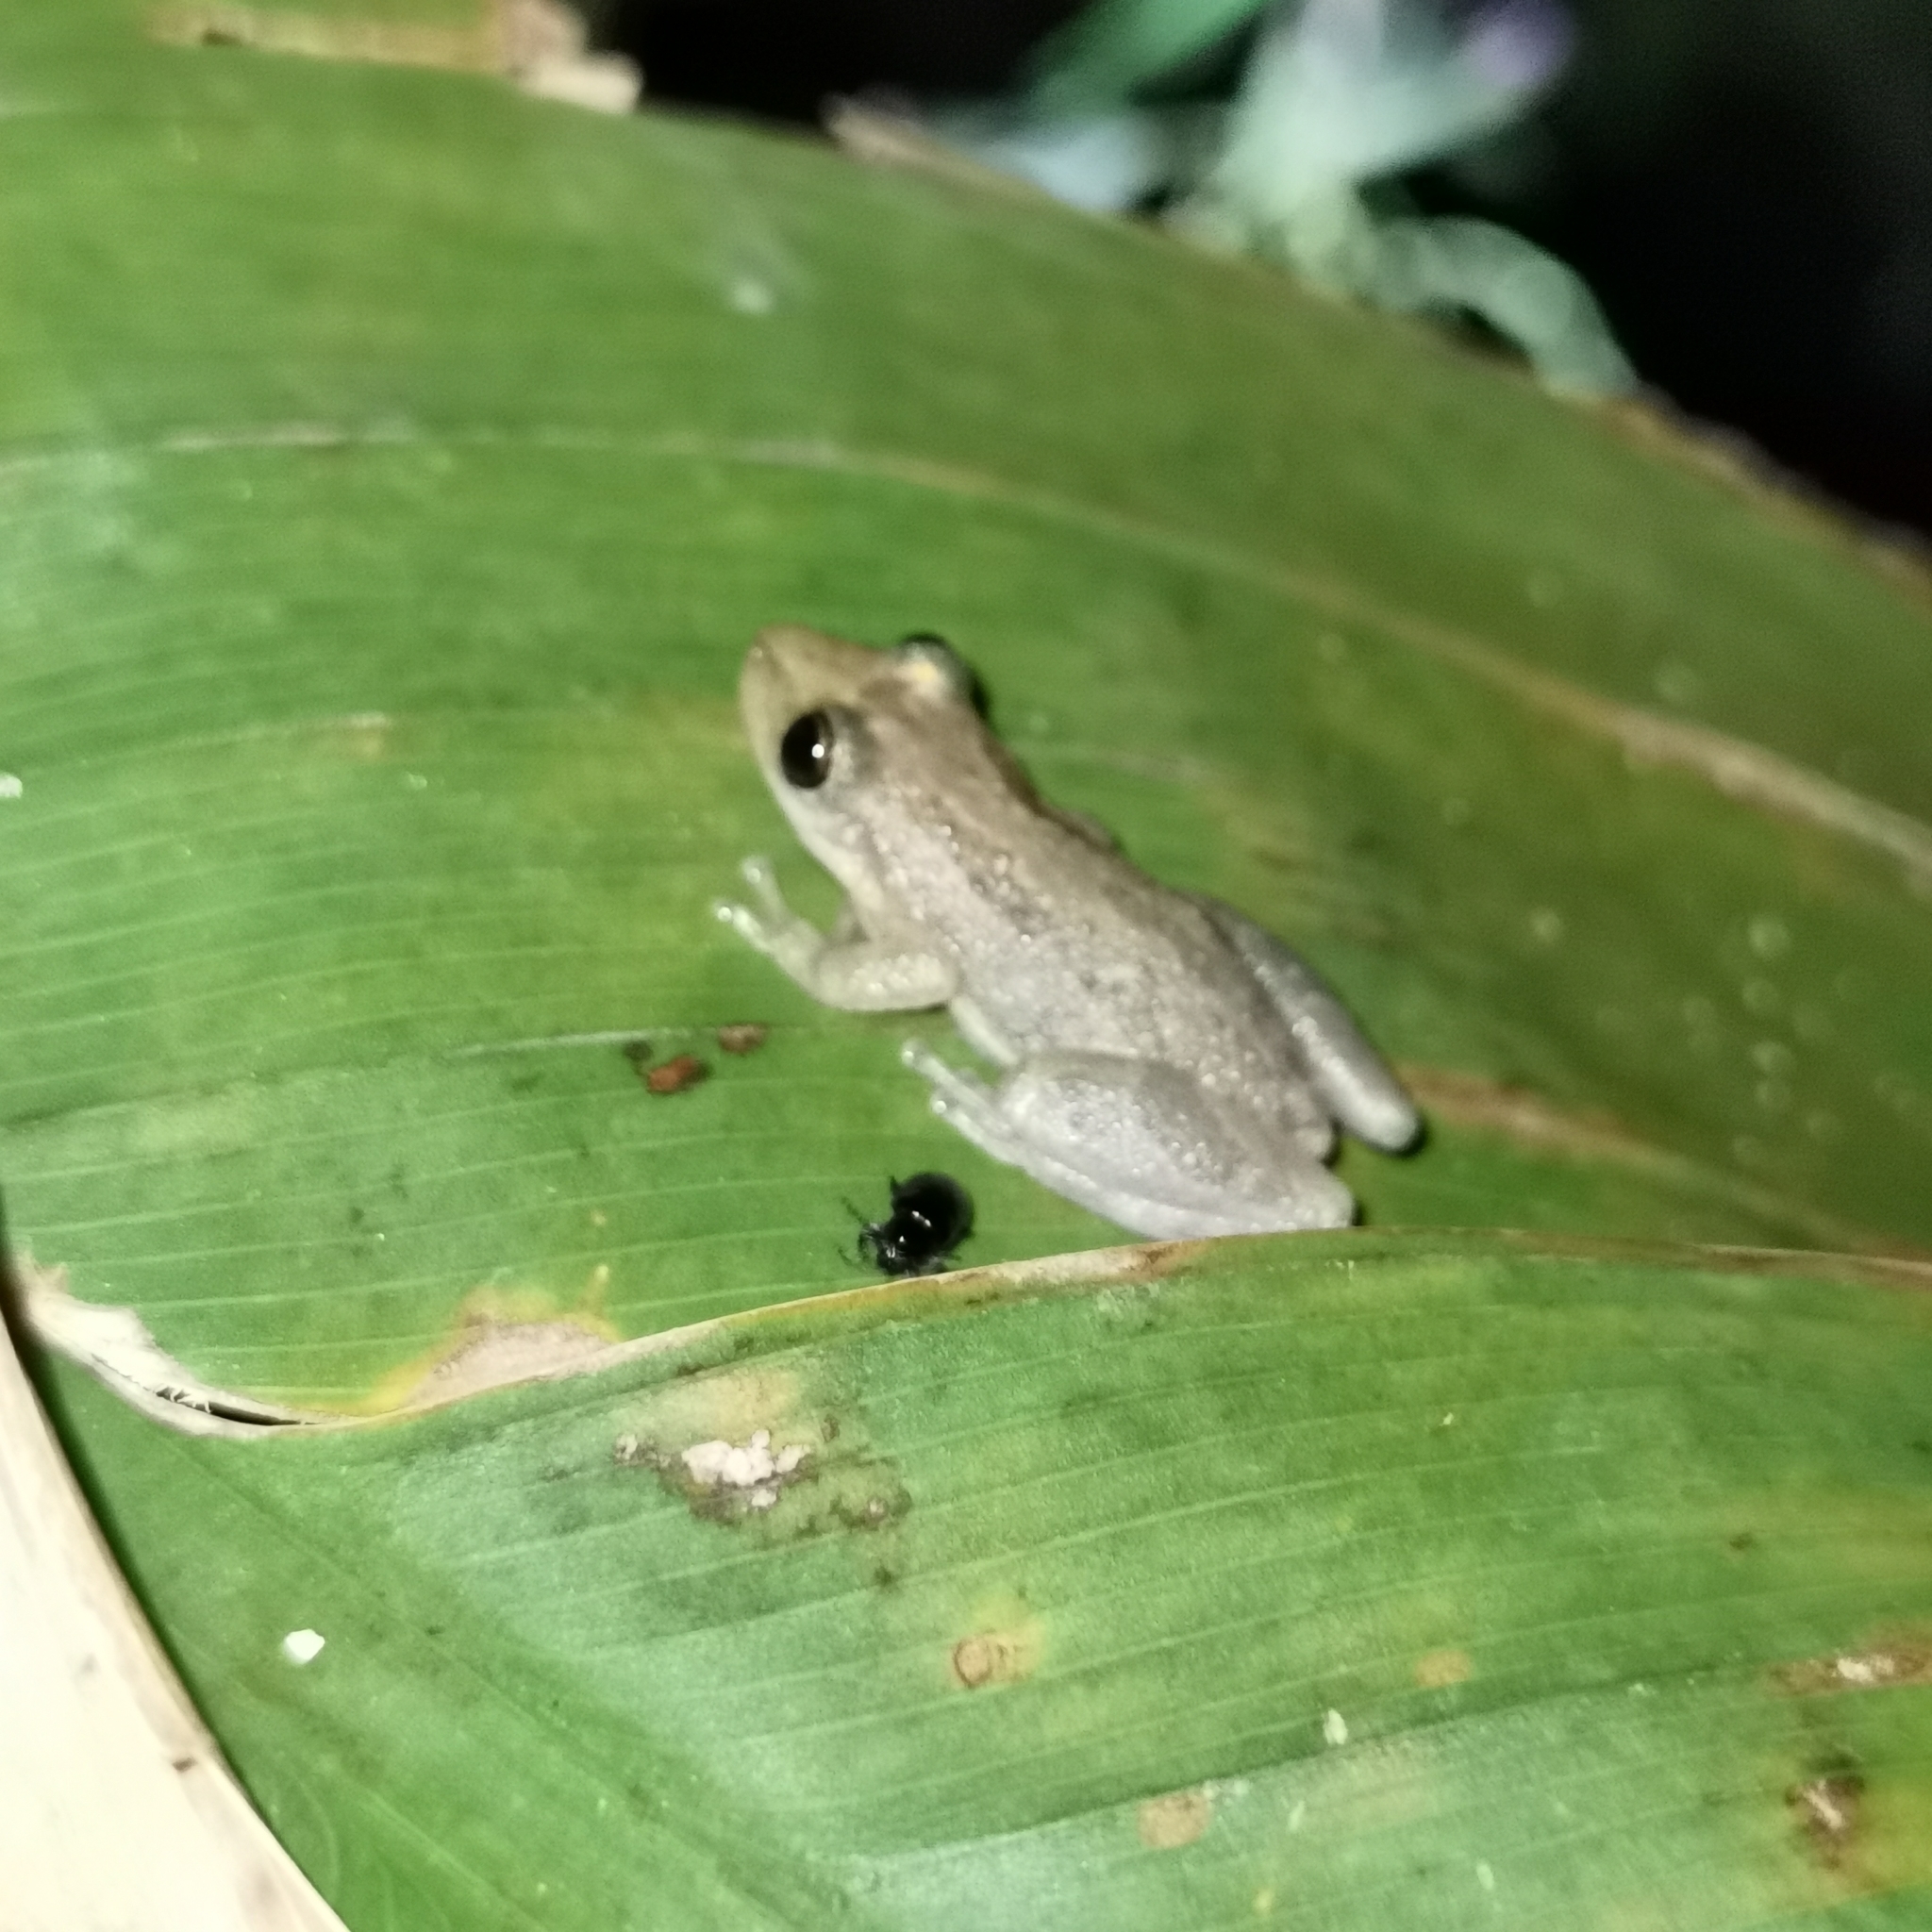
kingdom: Animalia
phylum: Chordata
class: Amphibia
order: Anura
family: Hylidae
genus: Scinax
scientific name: Scinax staufferi
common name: Stauffer's long-nosed treefrog
